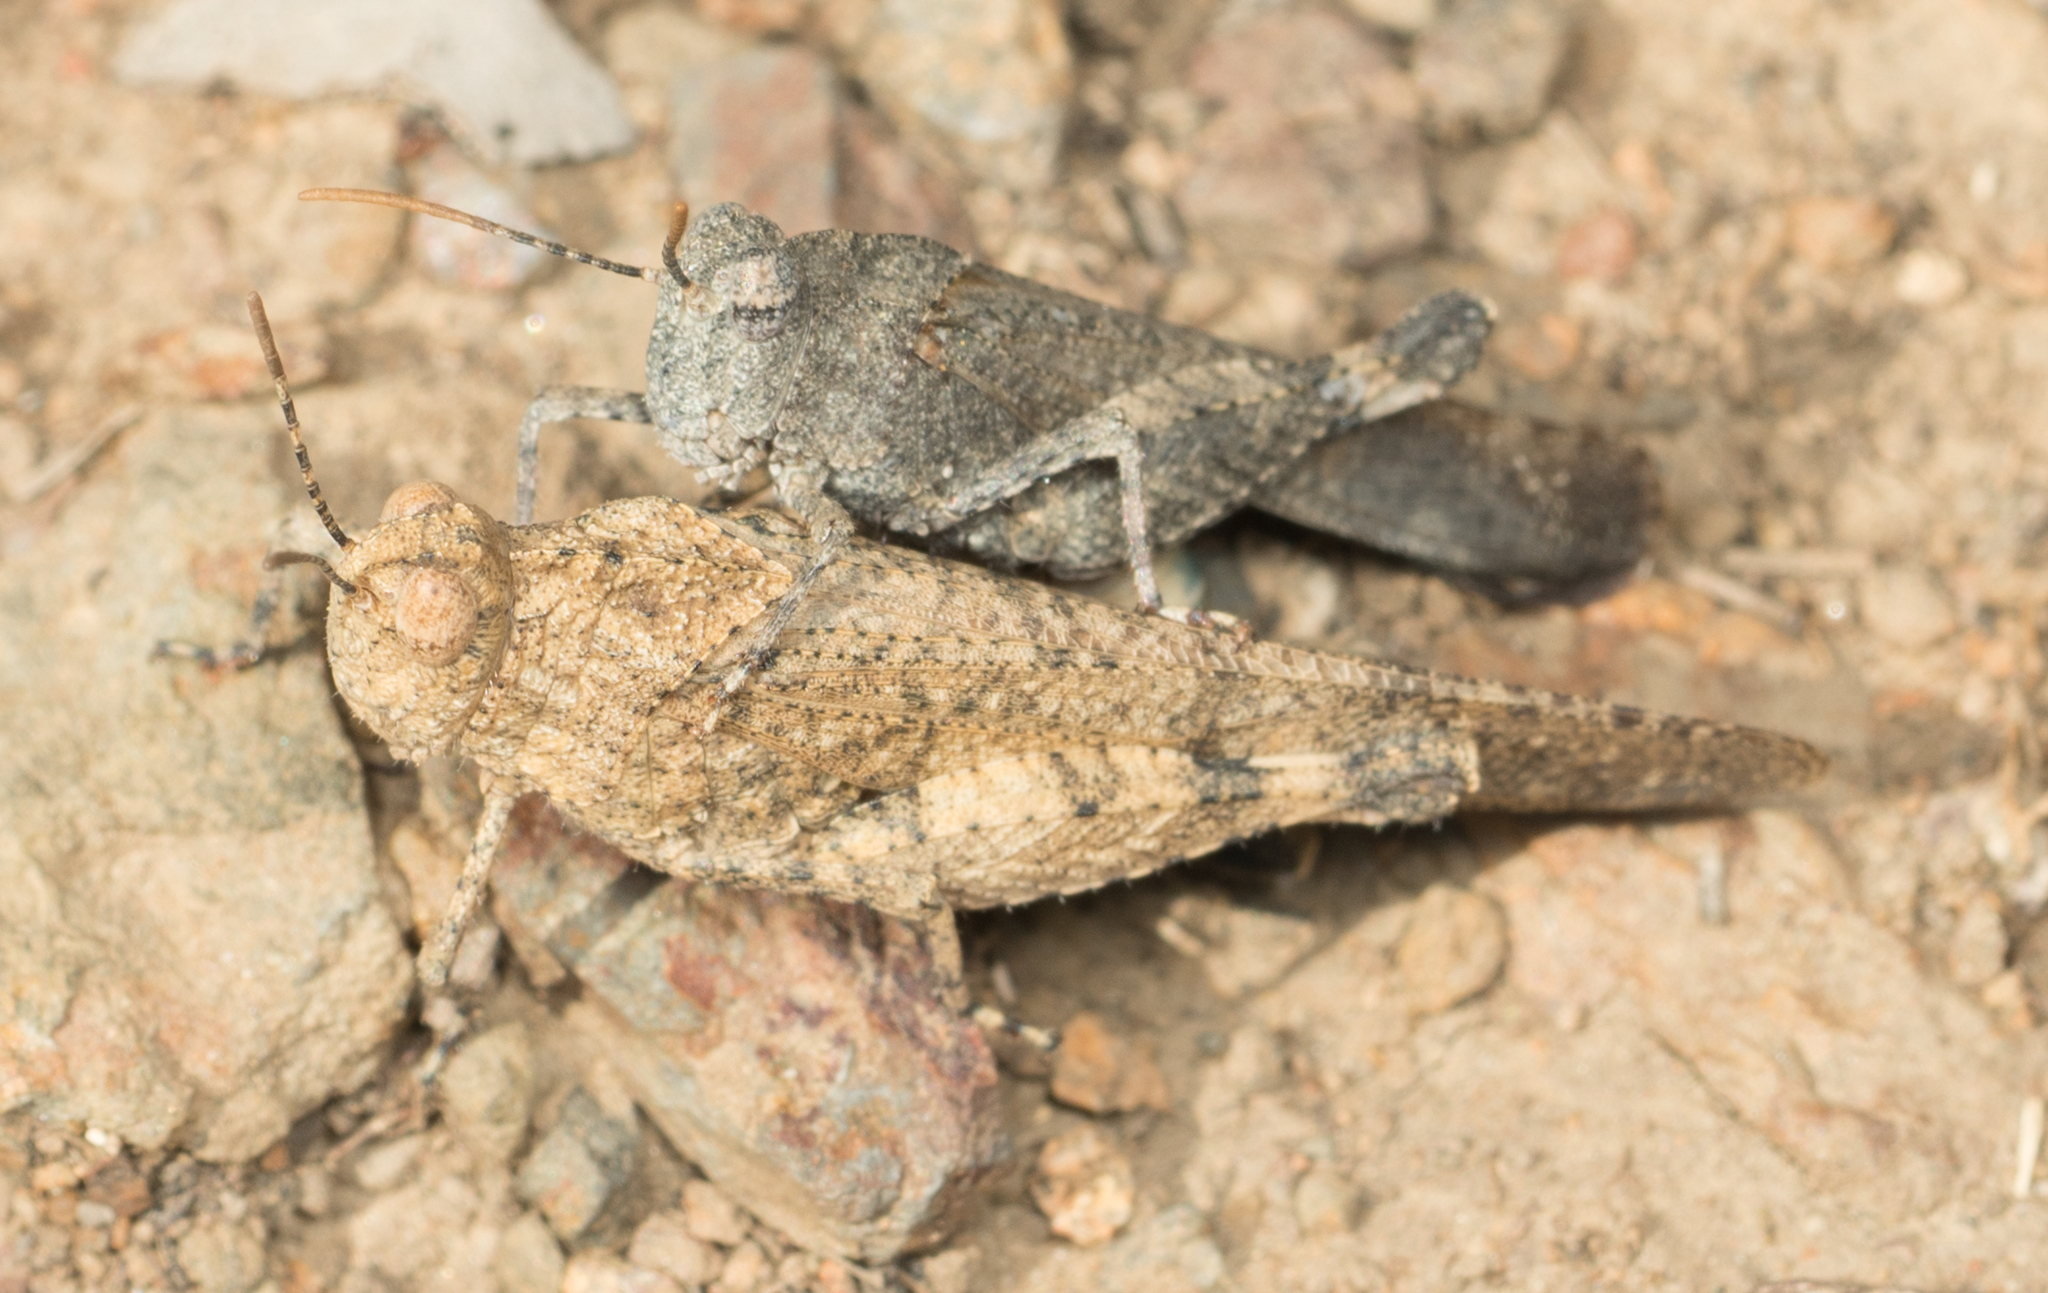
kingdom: Animalia
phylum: Arthropoda
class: Insecta
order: Orthoptera
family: Acrididae
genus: Lactista
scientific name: Lactista gibbosus
